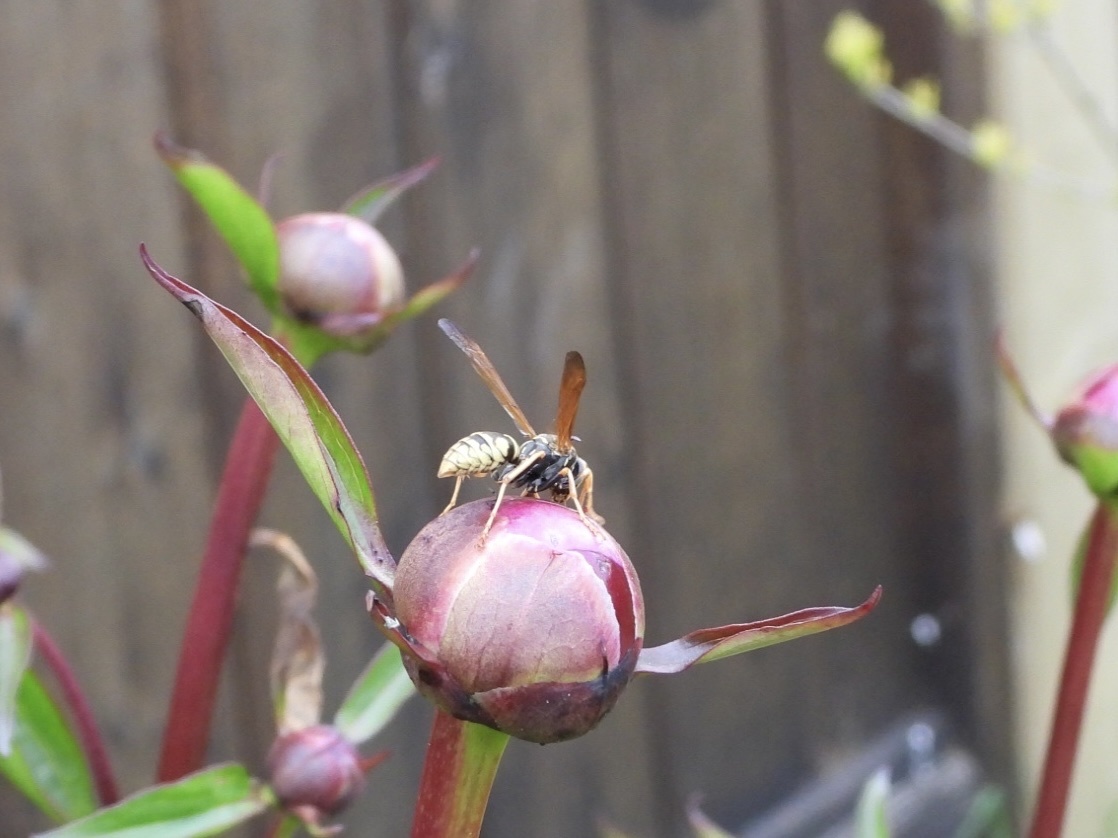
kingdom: Animalia
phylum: Arthropoda
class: Insecta
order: Hymenoptera
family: Eumenidae
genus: Polistes
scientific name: Polistes aurifer
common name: Paper wasp
